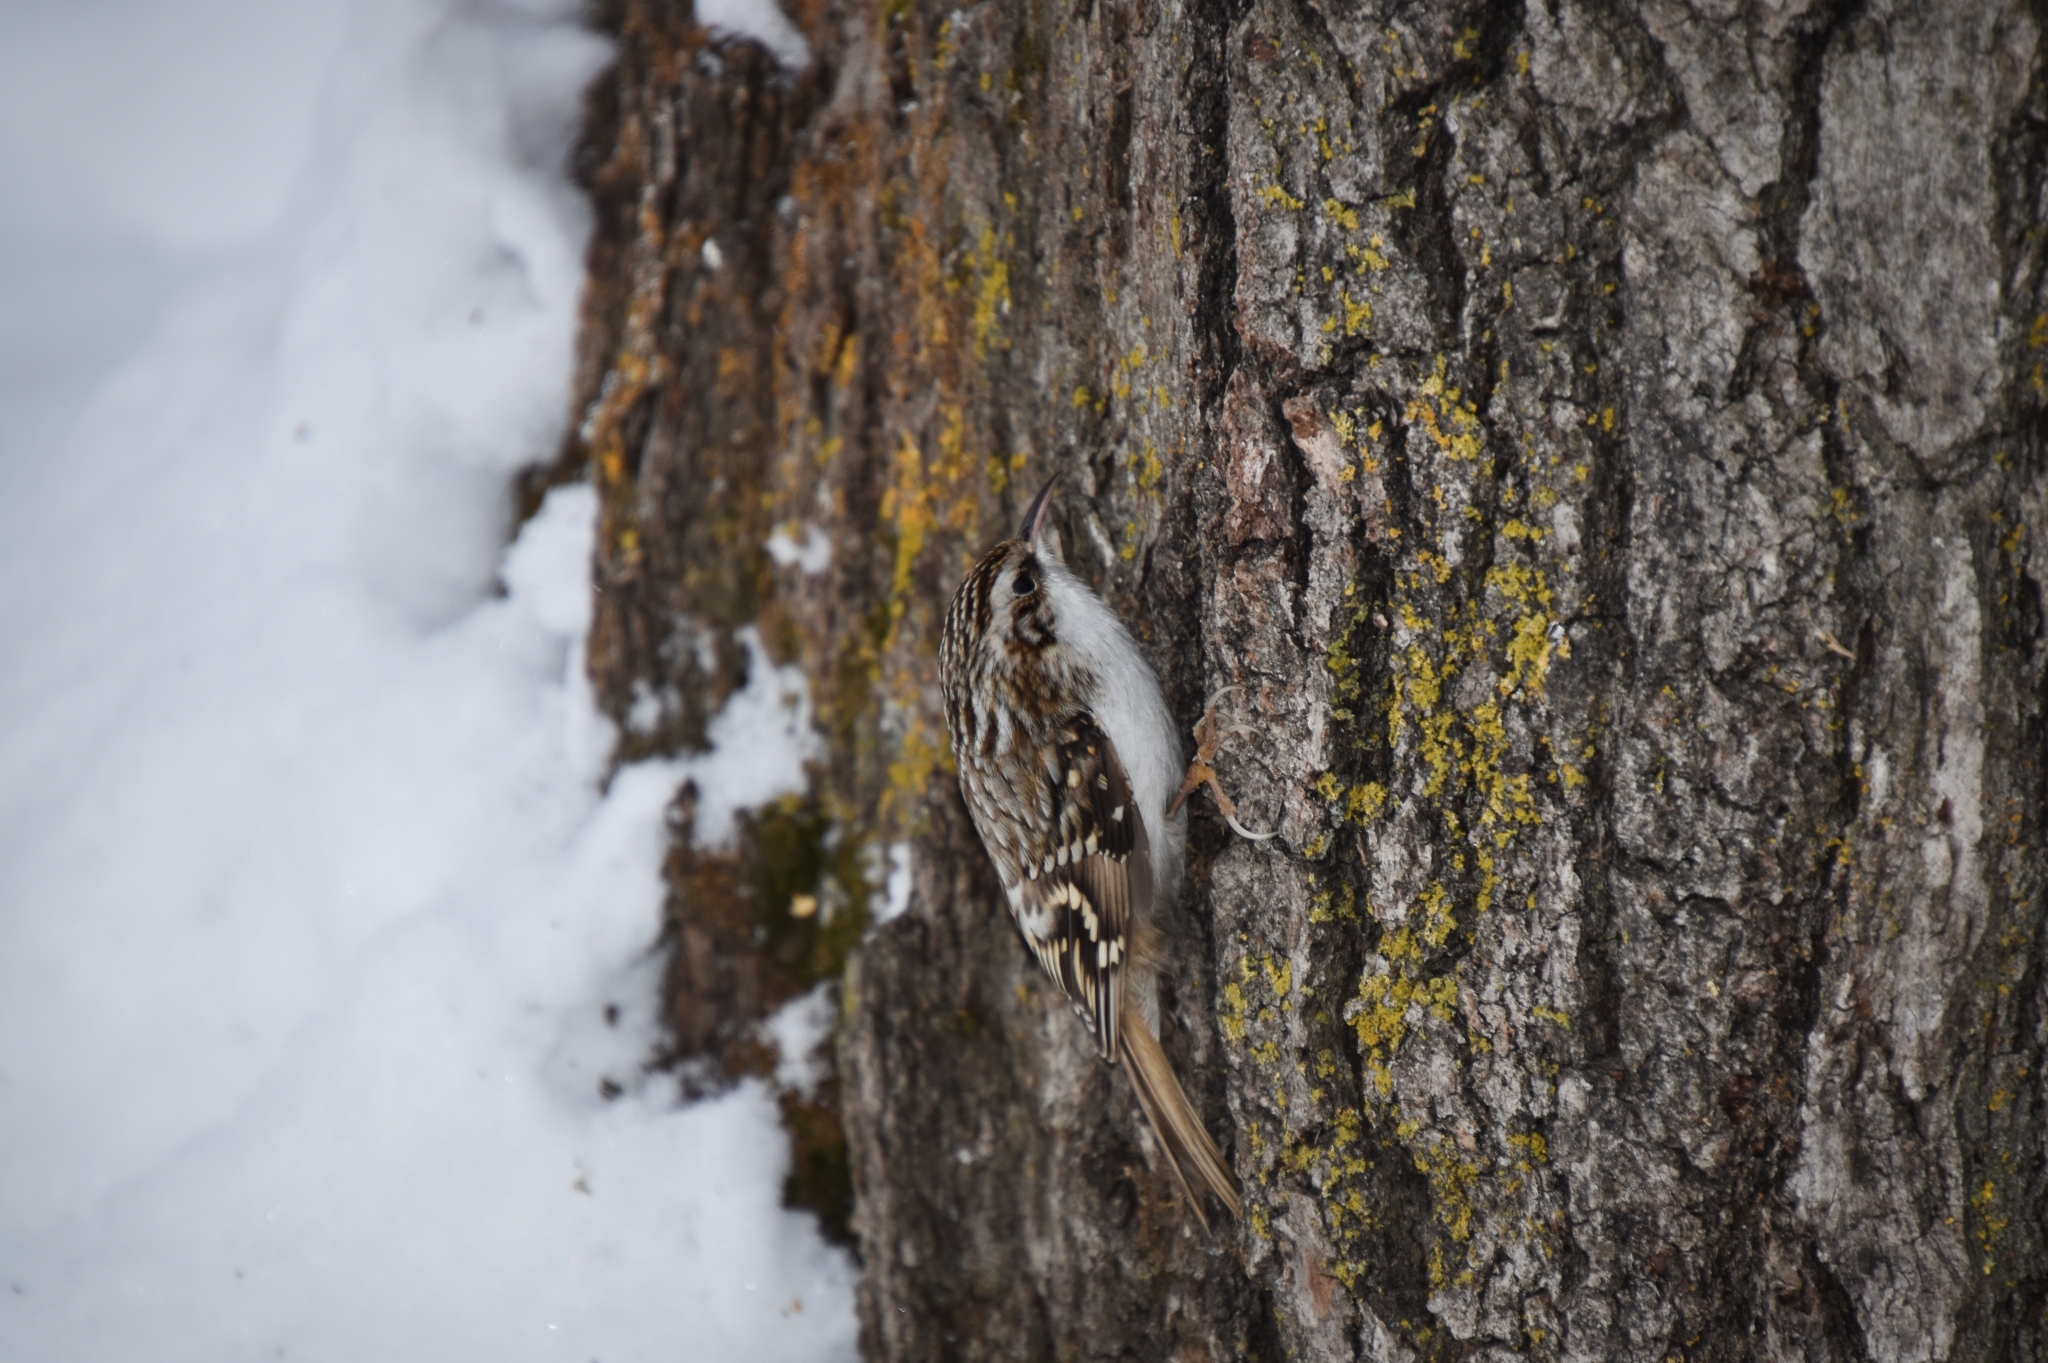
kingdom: Animalia
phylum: Chordata
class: Aves
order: Passeriformes
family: Certhiidae
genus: Certhia
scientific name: Certhia familiaris
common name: Eurasian treecreeper
